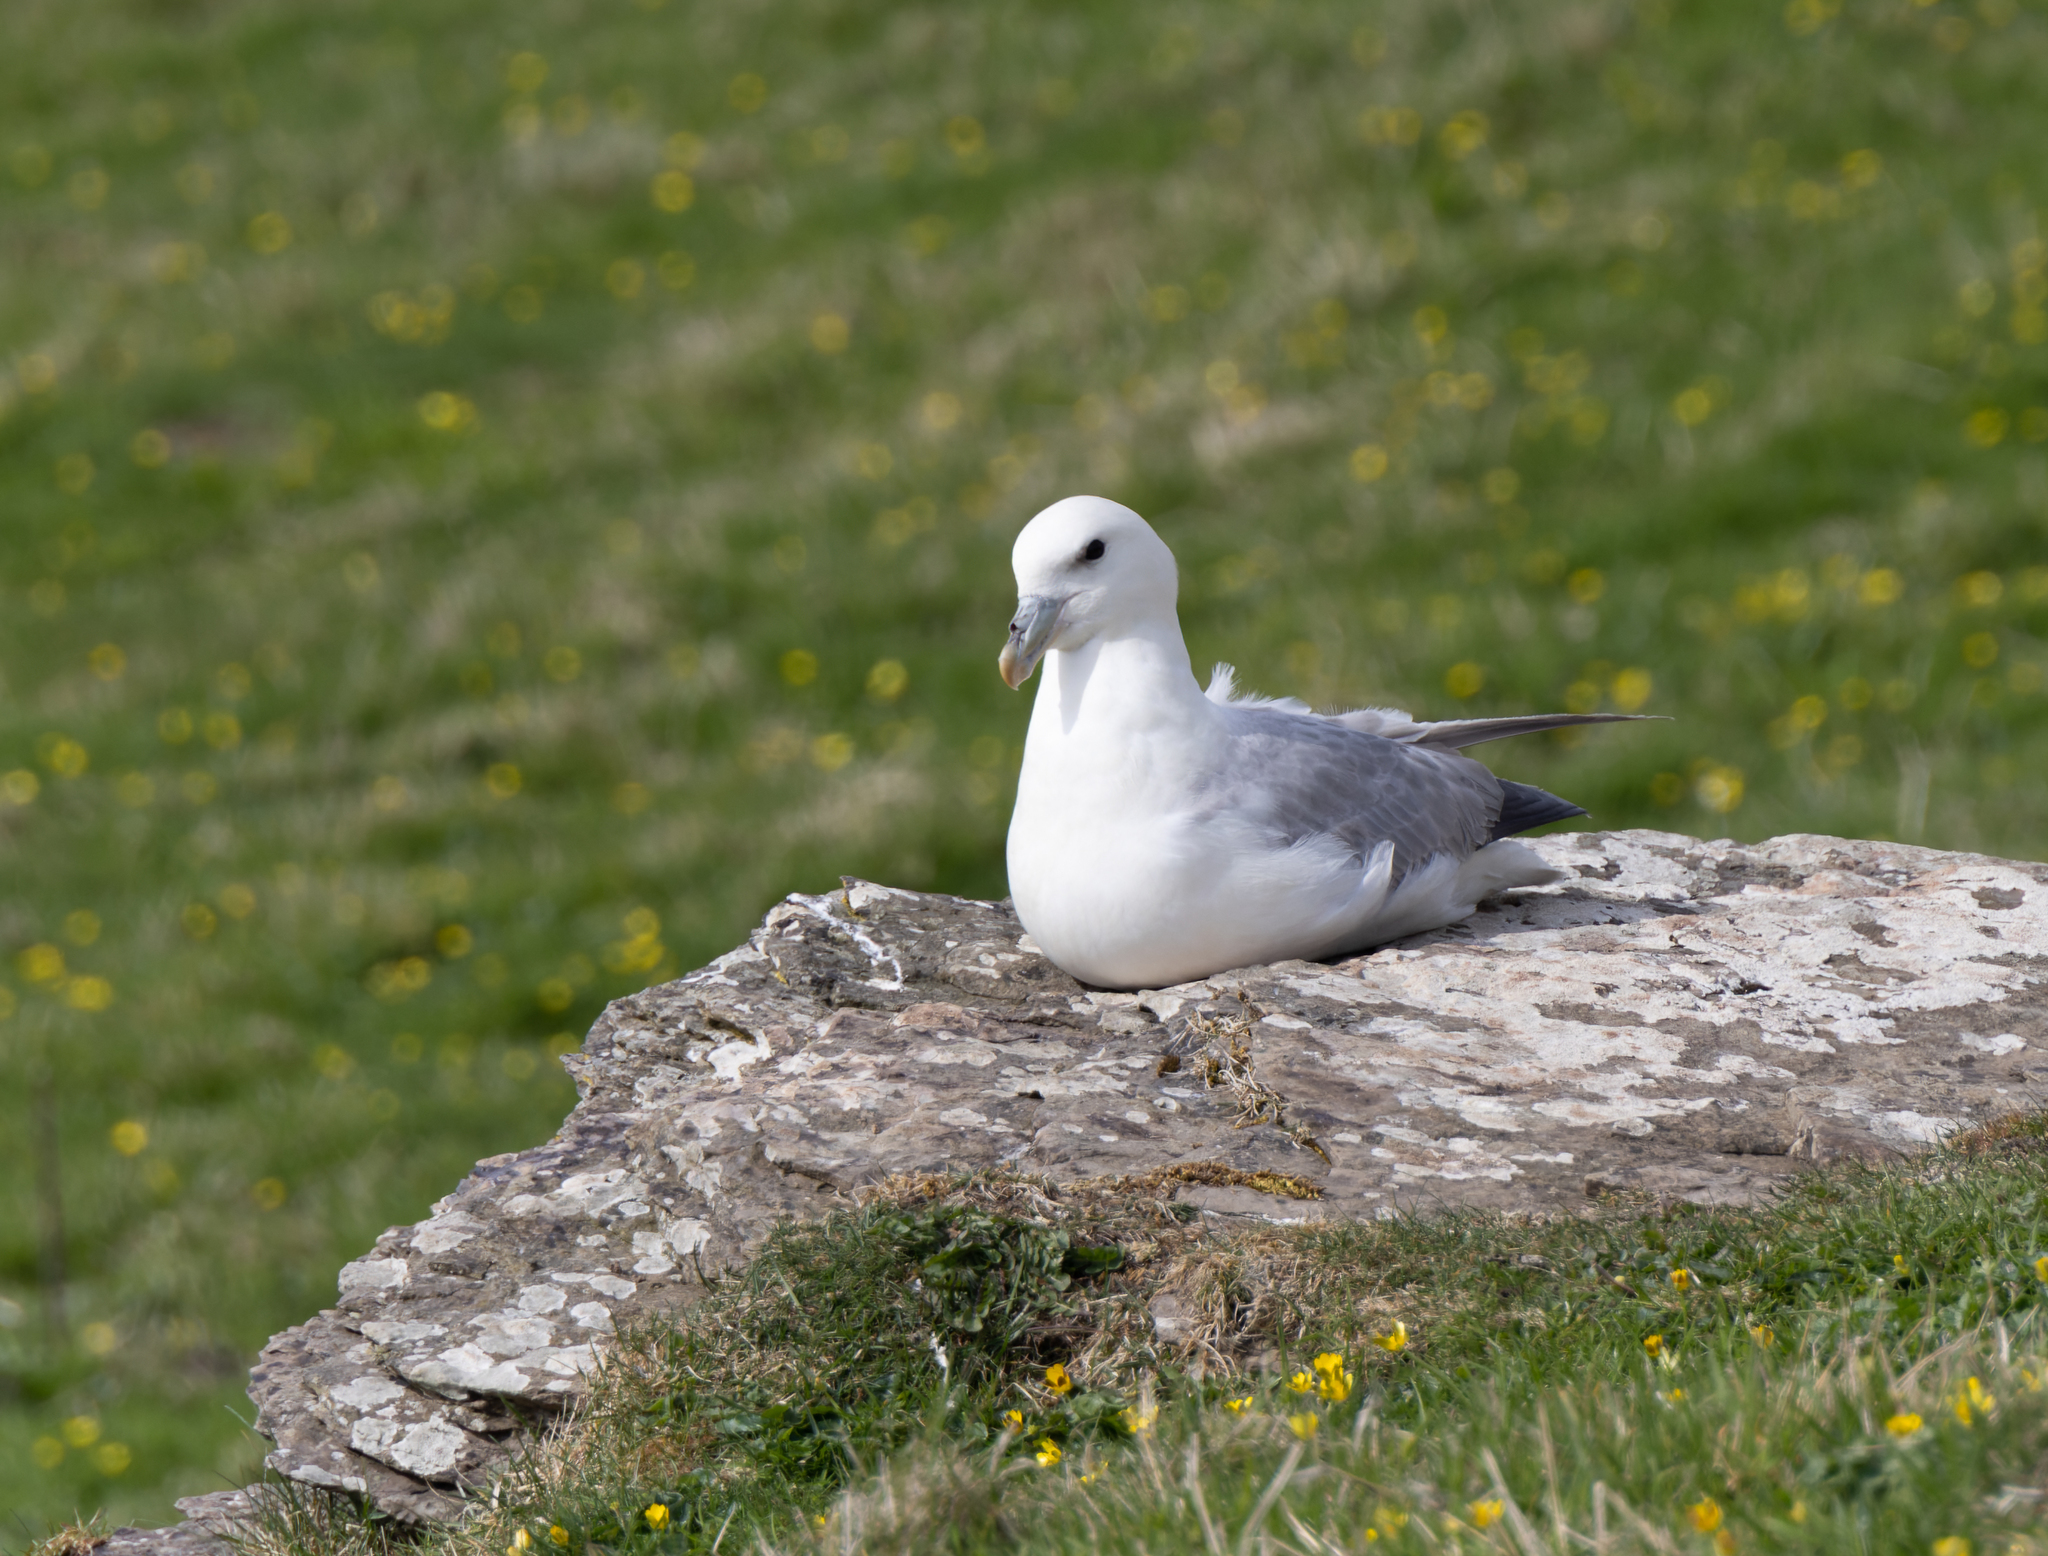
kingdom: Animalia
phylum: Chordata
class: Aves
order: Procellariiformes
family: Procellariidae
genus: Fulmarus
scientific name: Fulmarus glacialis
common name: Northern fulmar
